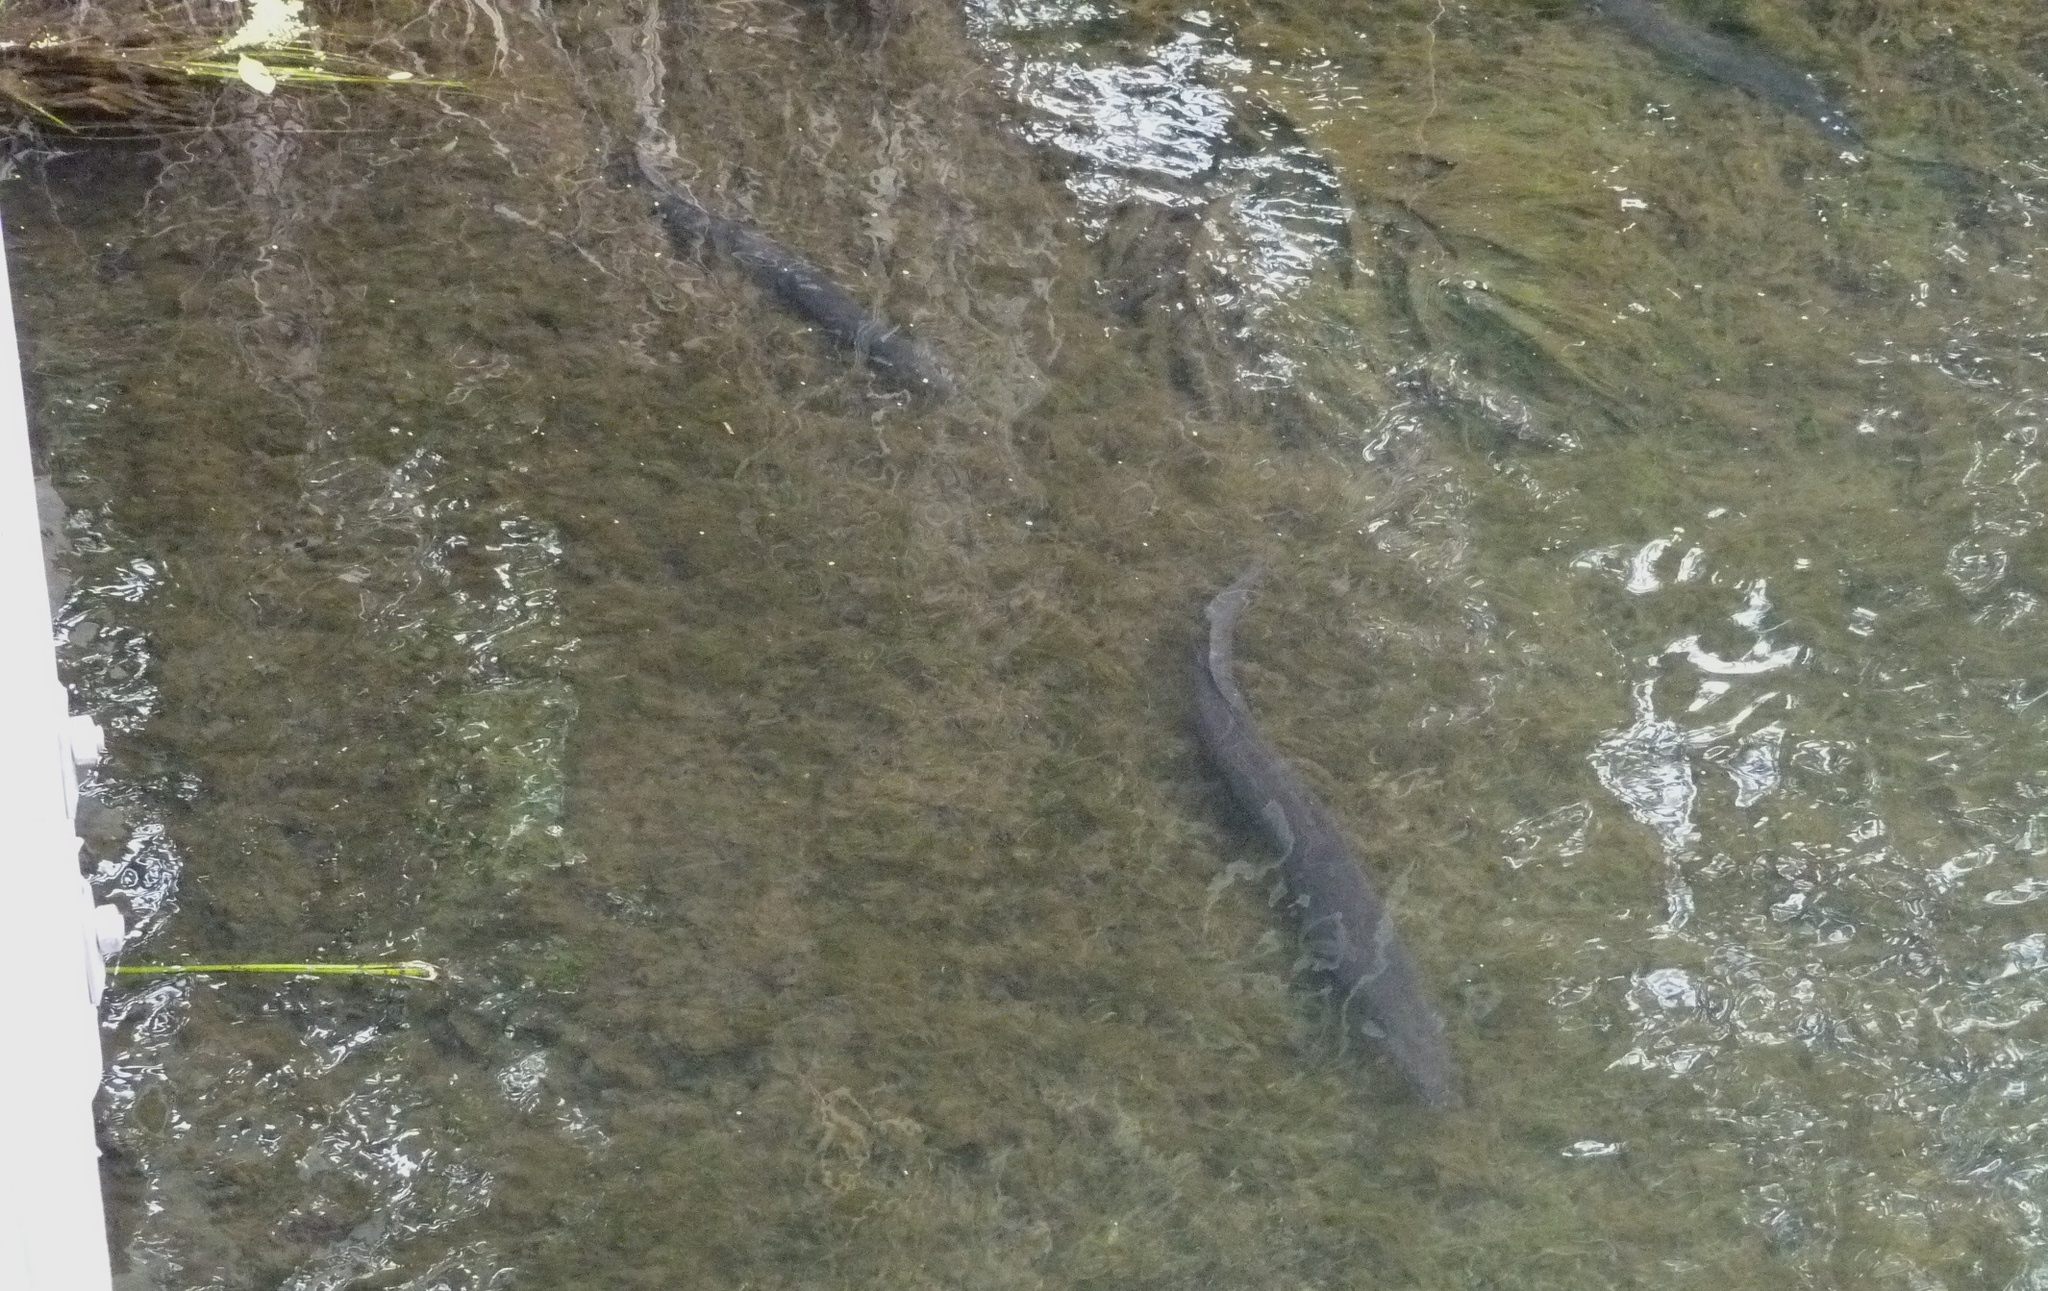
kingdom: Animalia
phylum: Chordata
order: Anguilliformes
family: Anguillidae
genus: Anguilla
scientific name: Anguilla australis
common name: Shortfin eel
